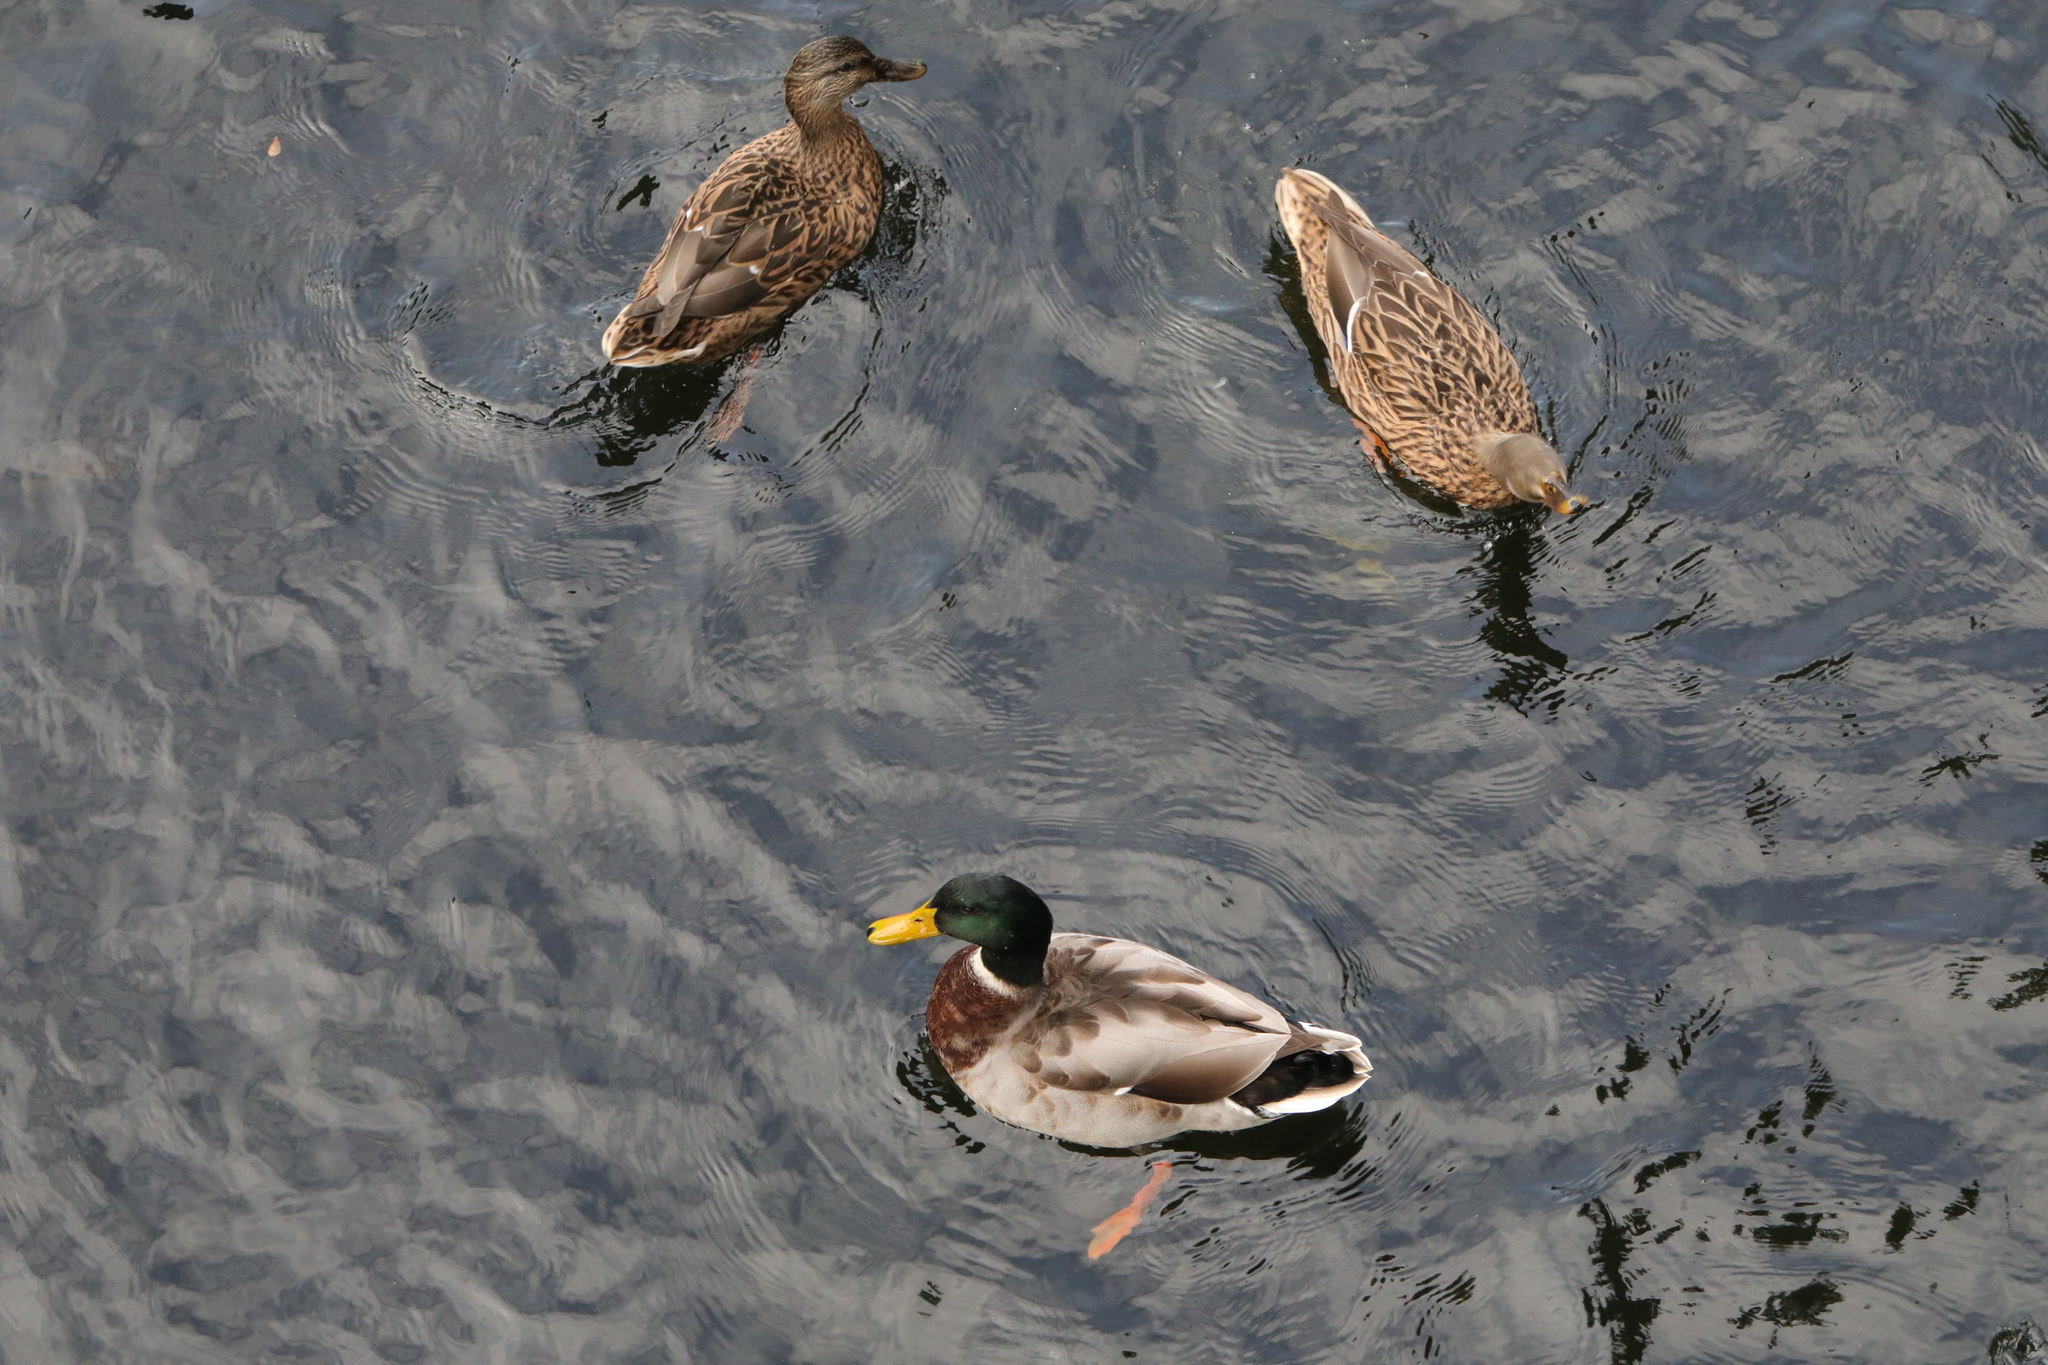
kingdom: Animalia
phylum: Chordata
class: Aves
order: Anseriformes
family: Anatidae
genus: Anas
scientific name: Anas platyrhynchos
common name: Mallard
